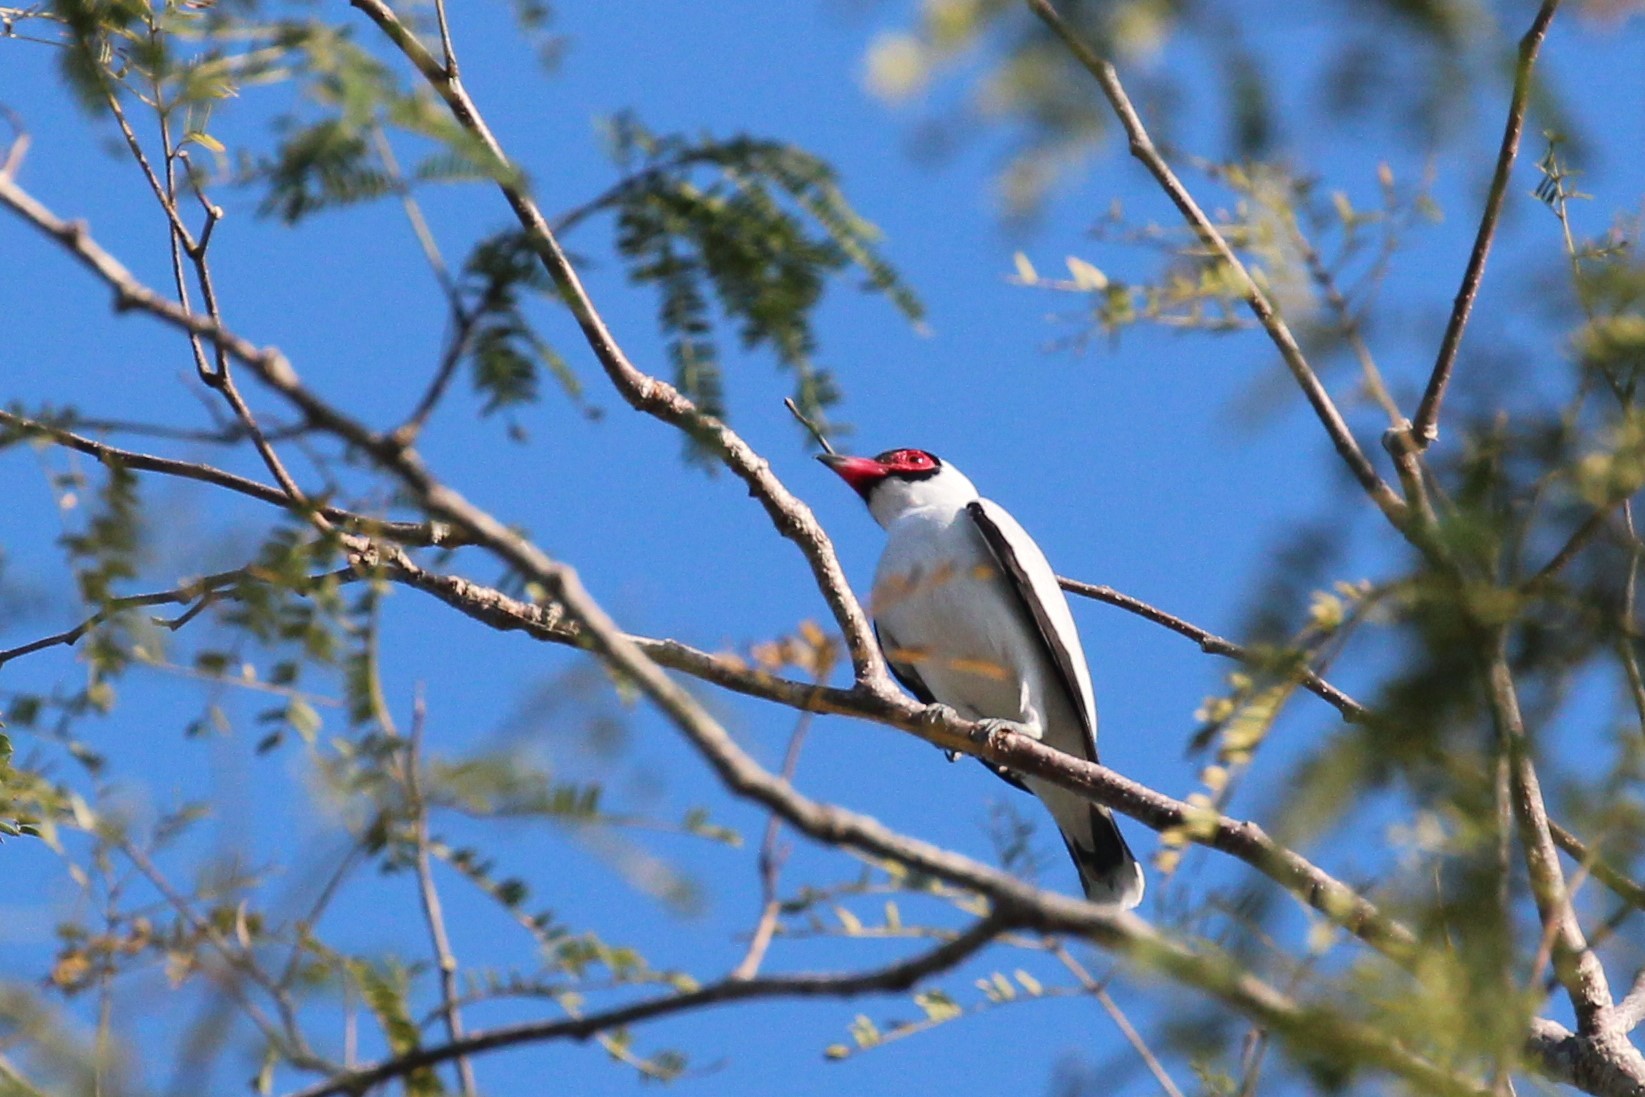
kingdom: Animalia
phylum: Chordata
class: Aves
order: Passeriformes
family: Cotingidae
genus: Tityra
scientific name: Tityra semifasciata
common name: Masked tityra
